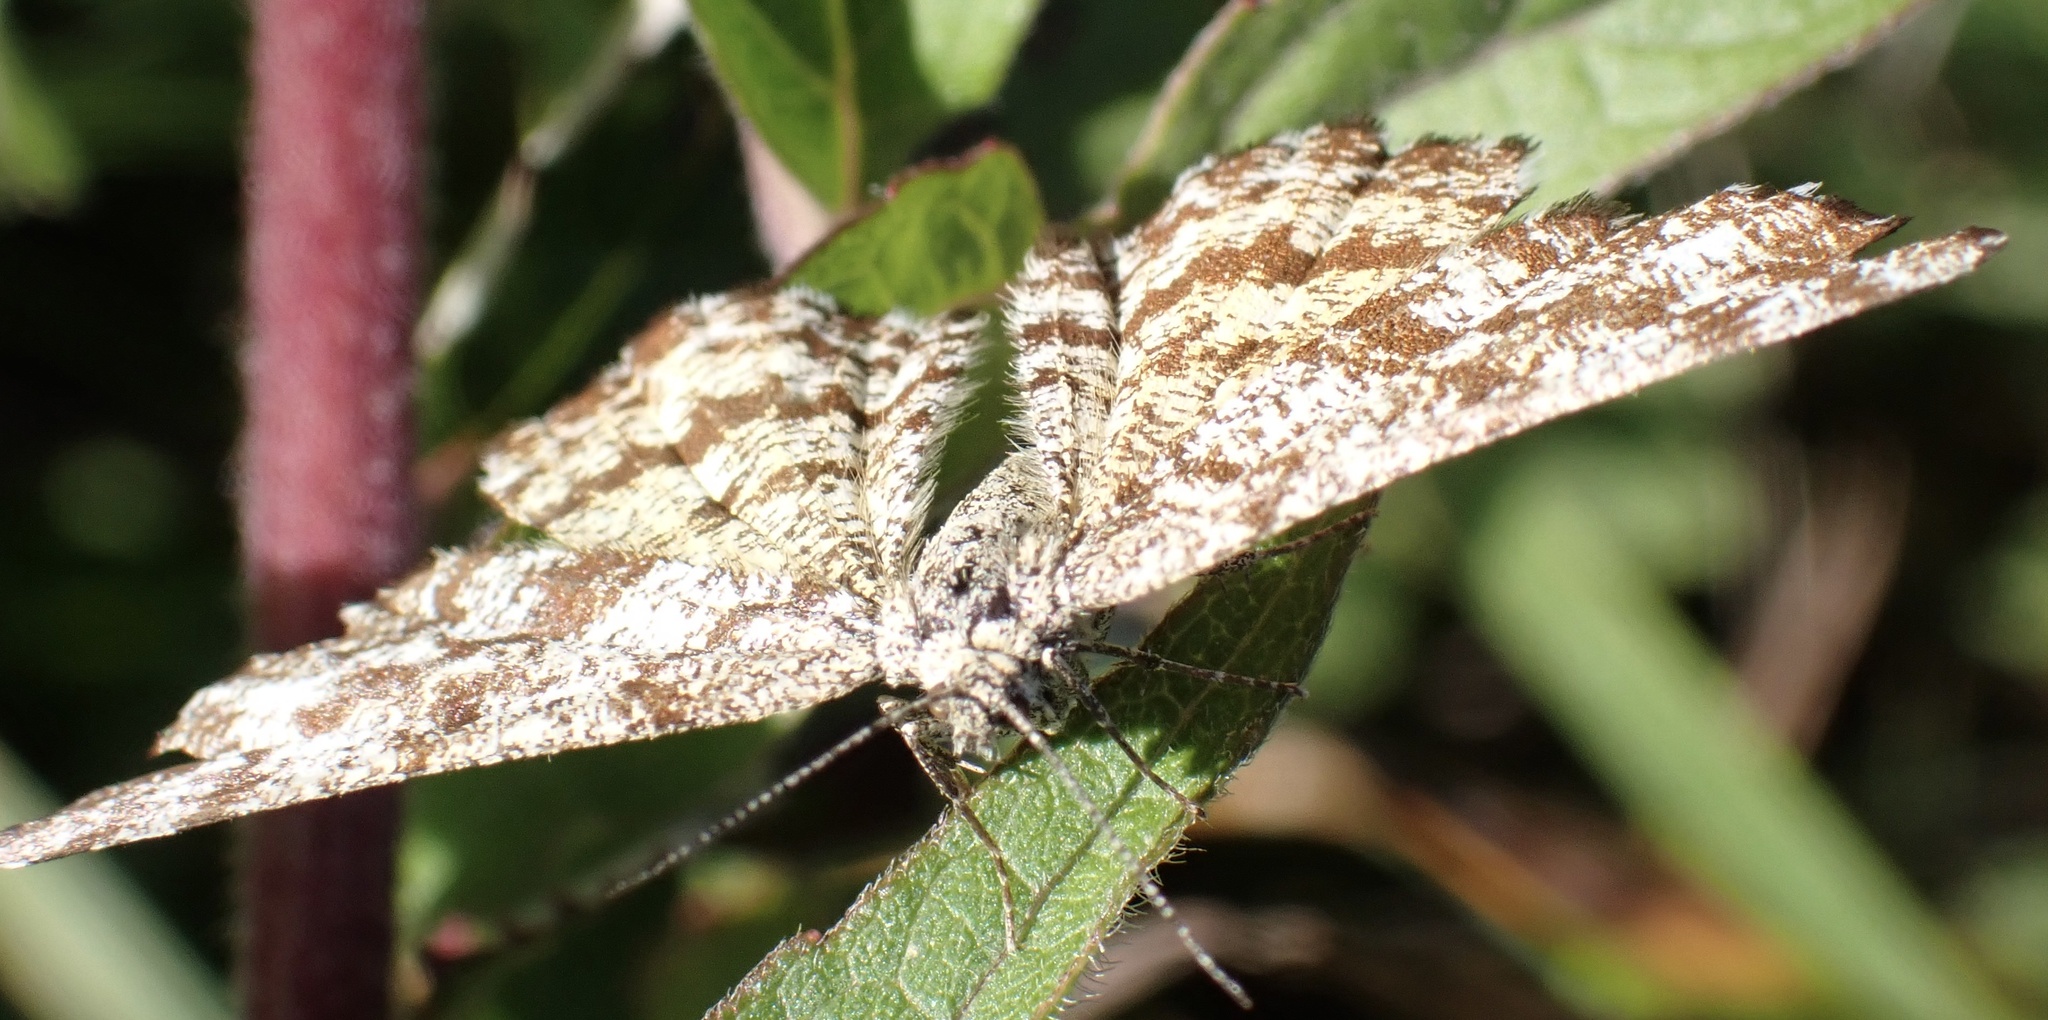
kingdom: Animalia
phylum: Arthropoda
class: Insecta
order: Lepidoptera
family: Geometridae
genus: Ematurga
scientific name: Ematurga atomaria
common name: Common heath
